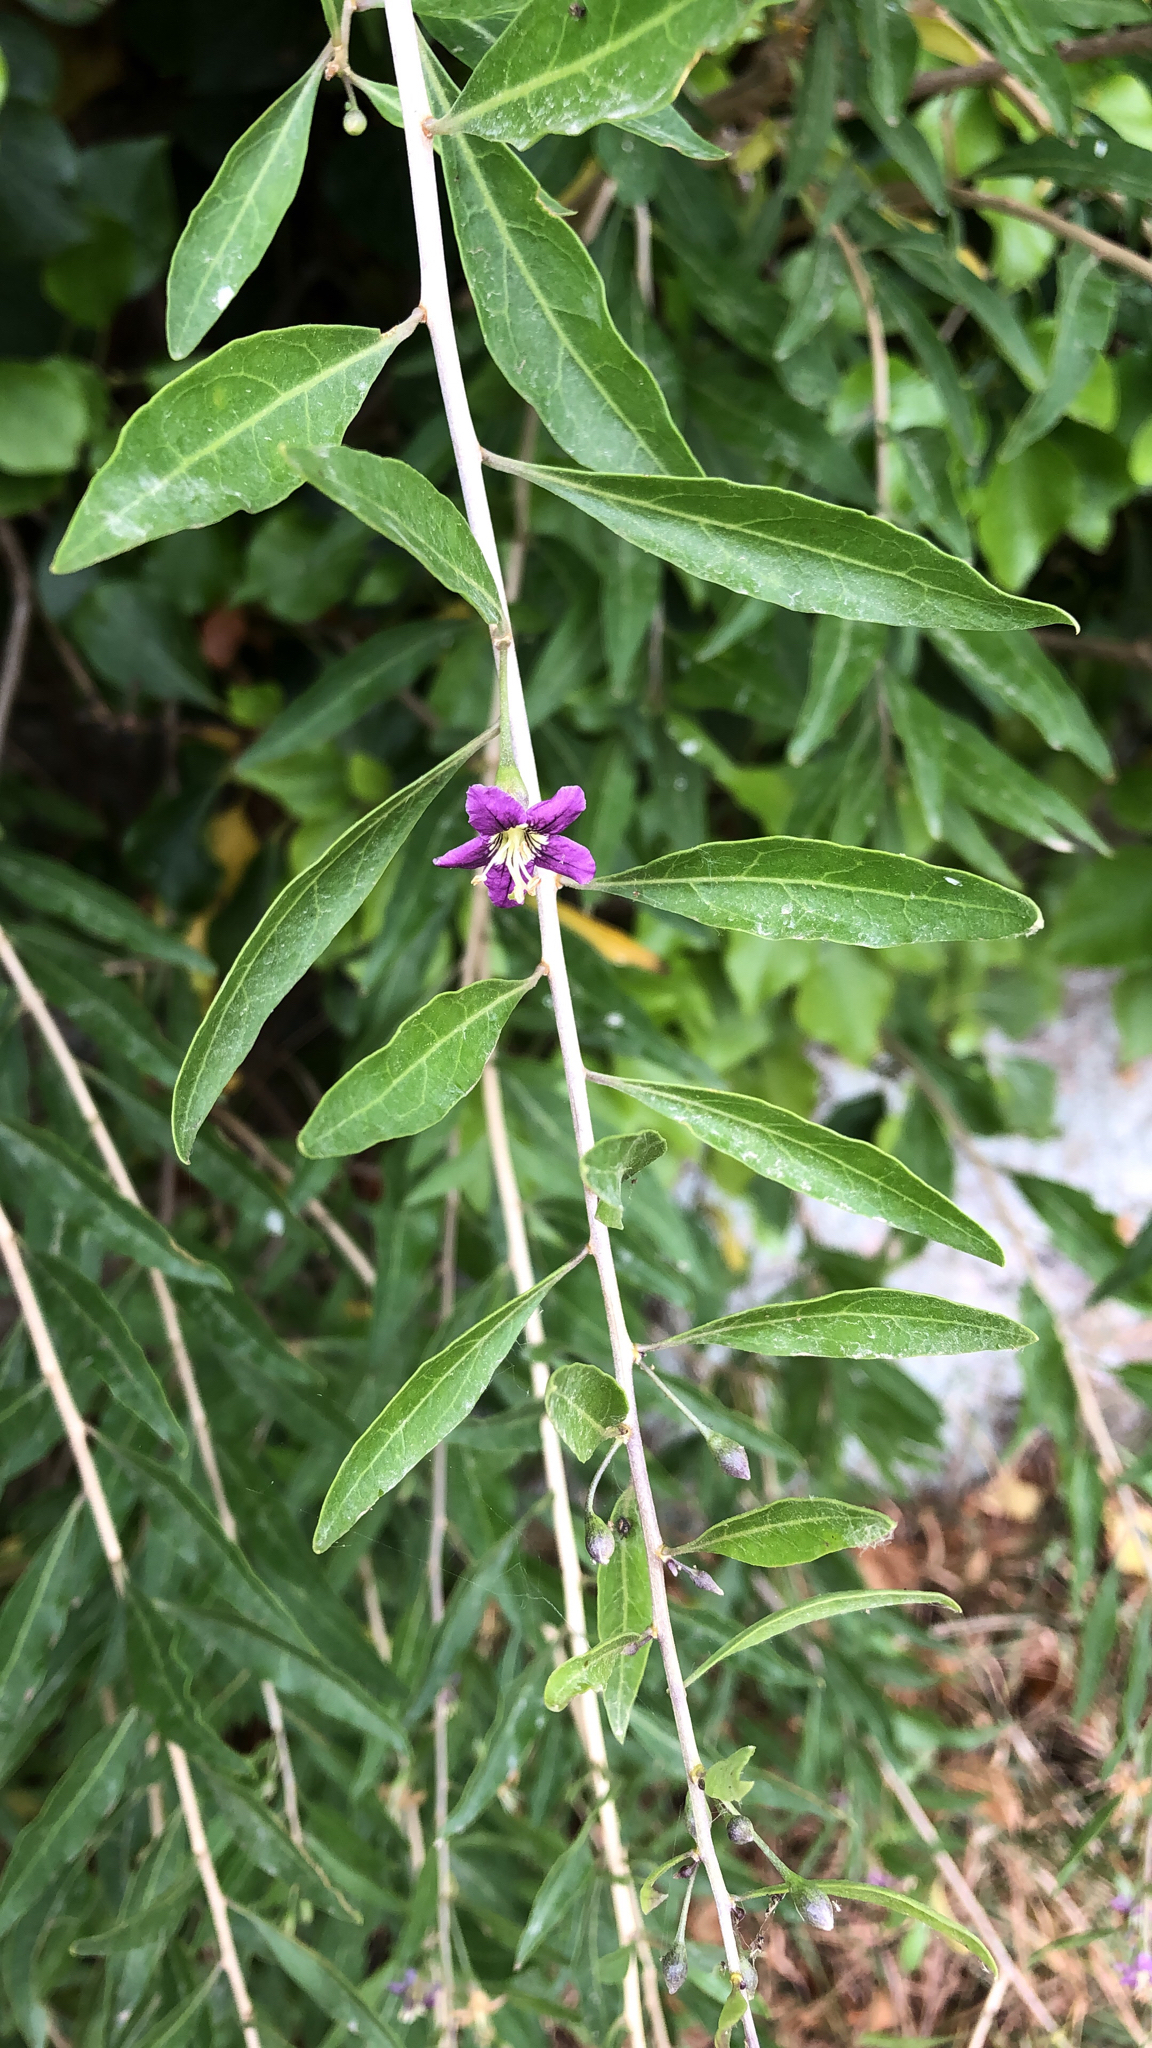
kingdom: Plantae
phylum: Tracheophyta
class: Magnoliopsida
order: Solanales
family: Solanaceae
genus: Lycium
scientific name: Lycium barbarum
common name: Duke of argyll's teaplant
